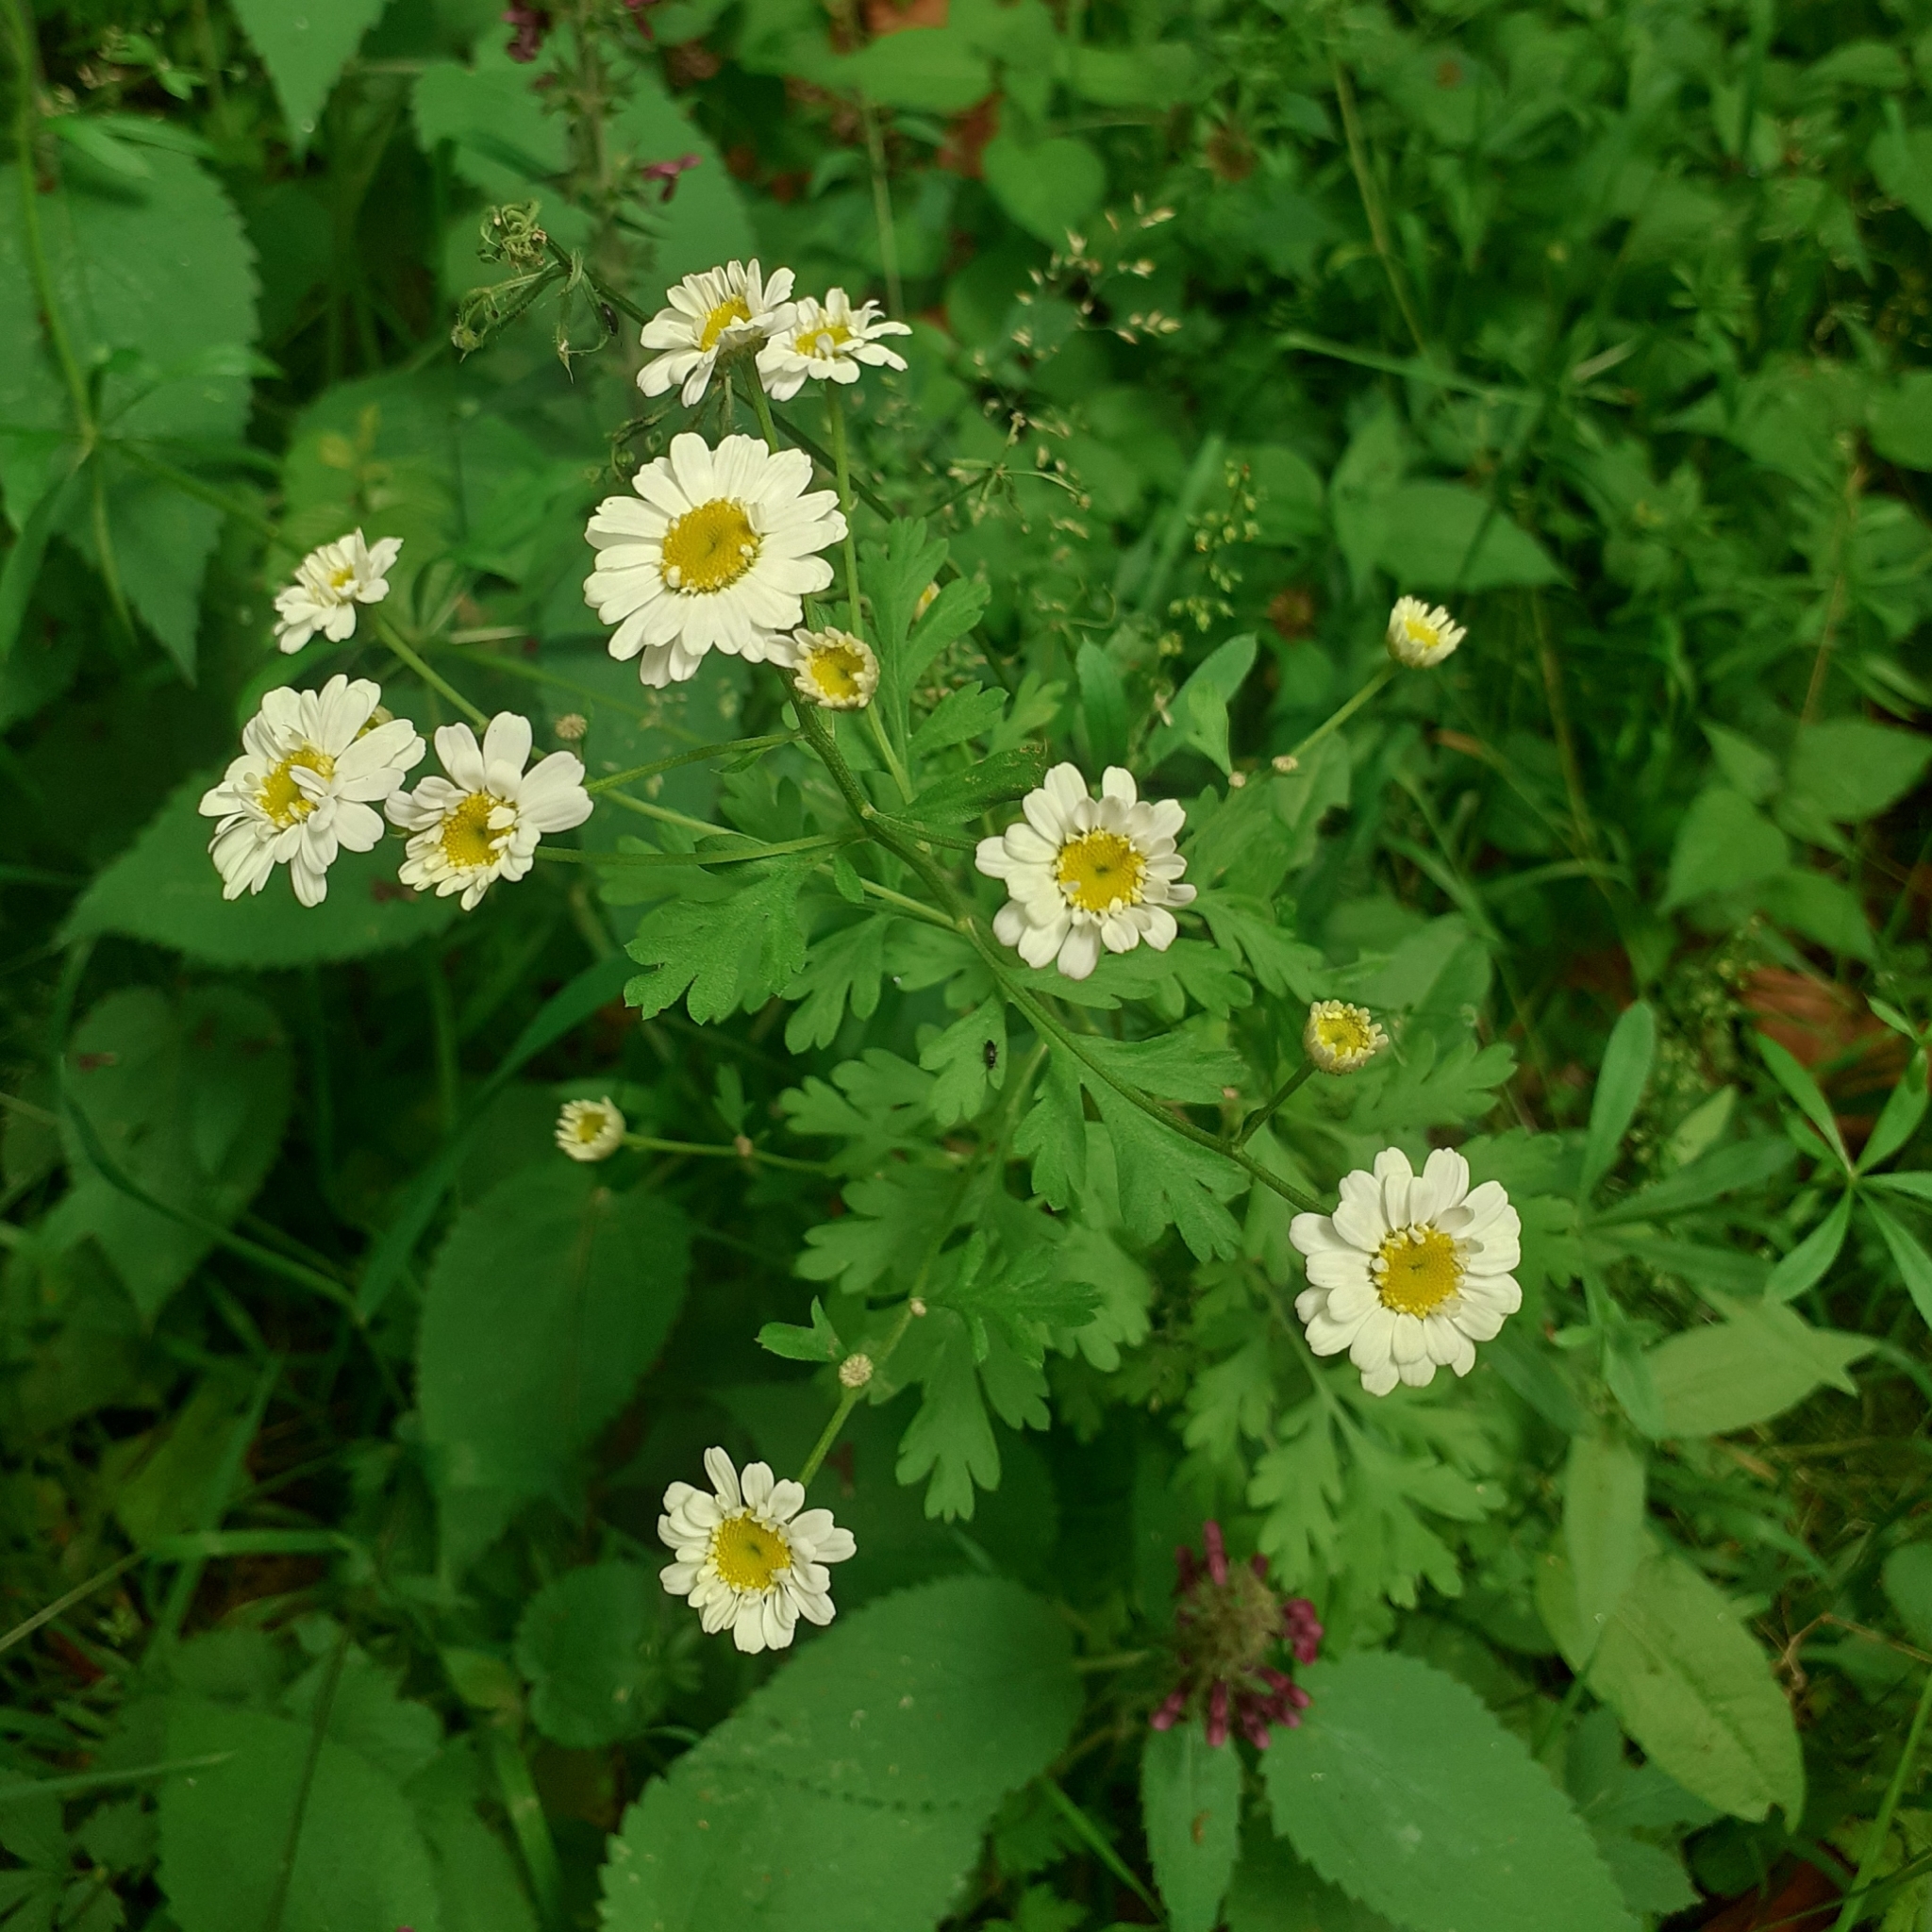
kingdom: Plantae
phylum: Tracheophyta
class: Magnoliopsida
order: Asterales
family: Asteraceae
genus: Tanacetum
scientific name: Tanacetum parthenium
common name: Feverfew
